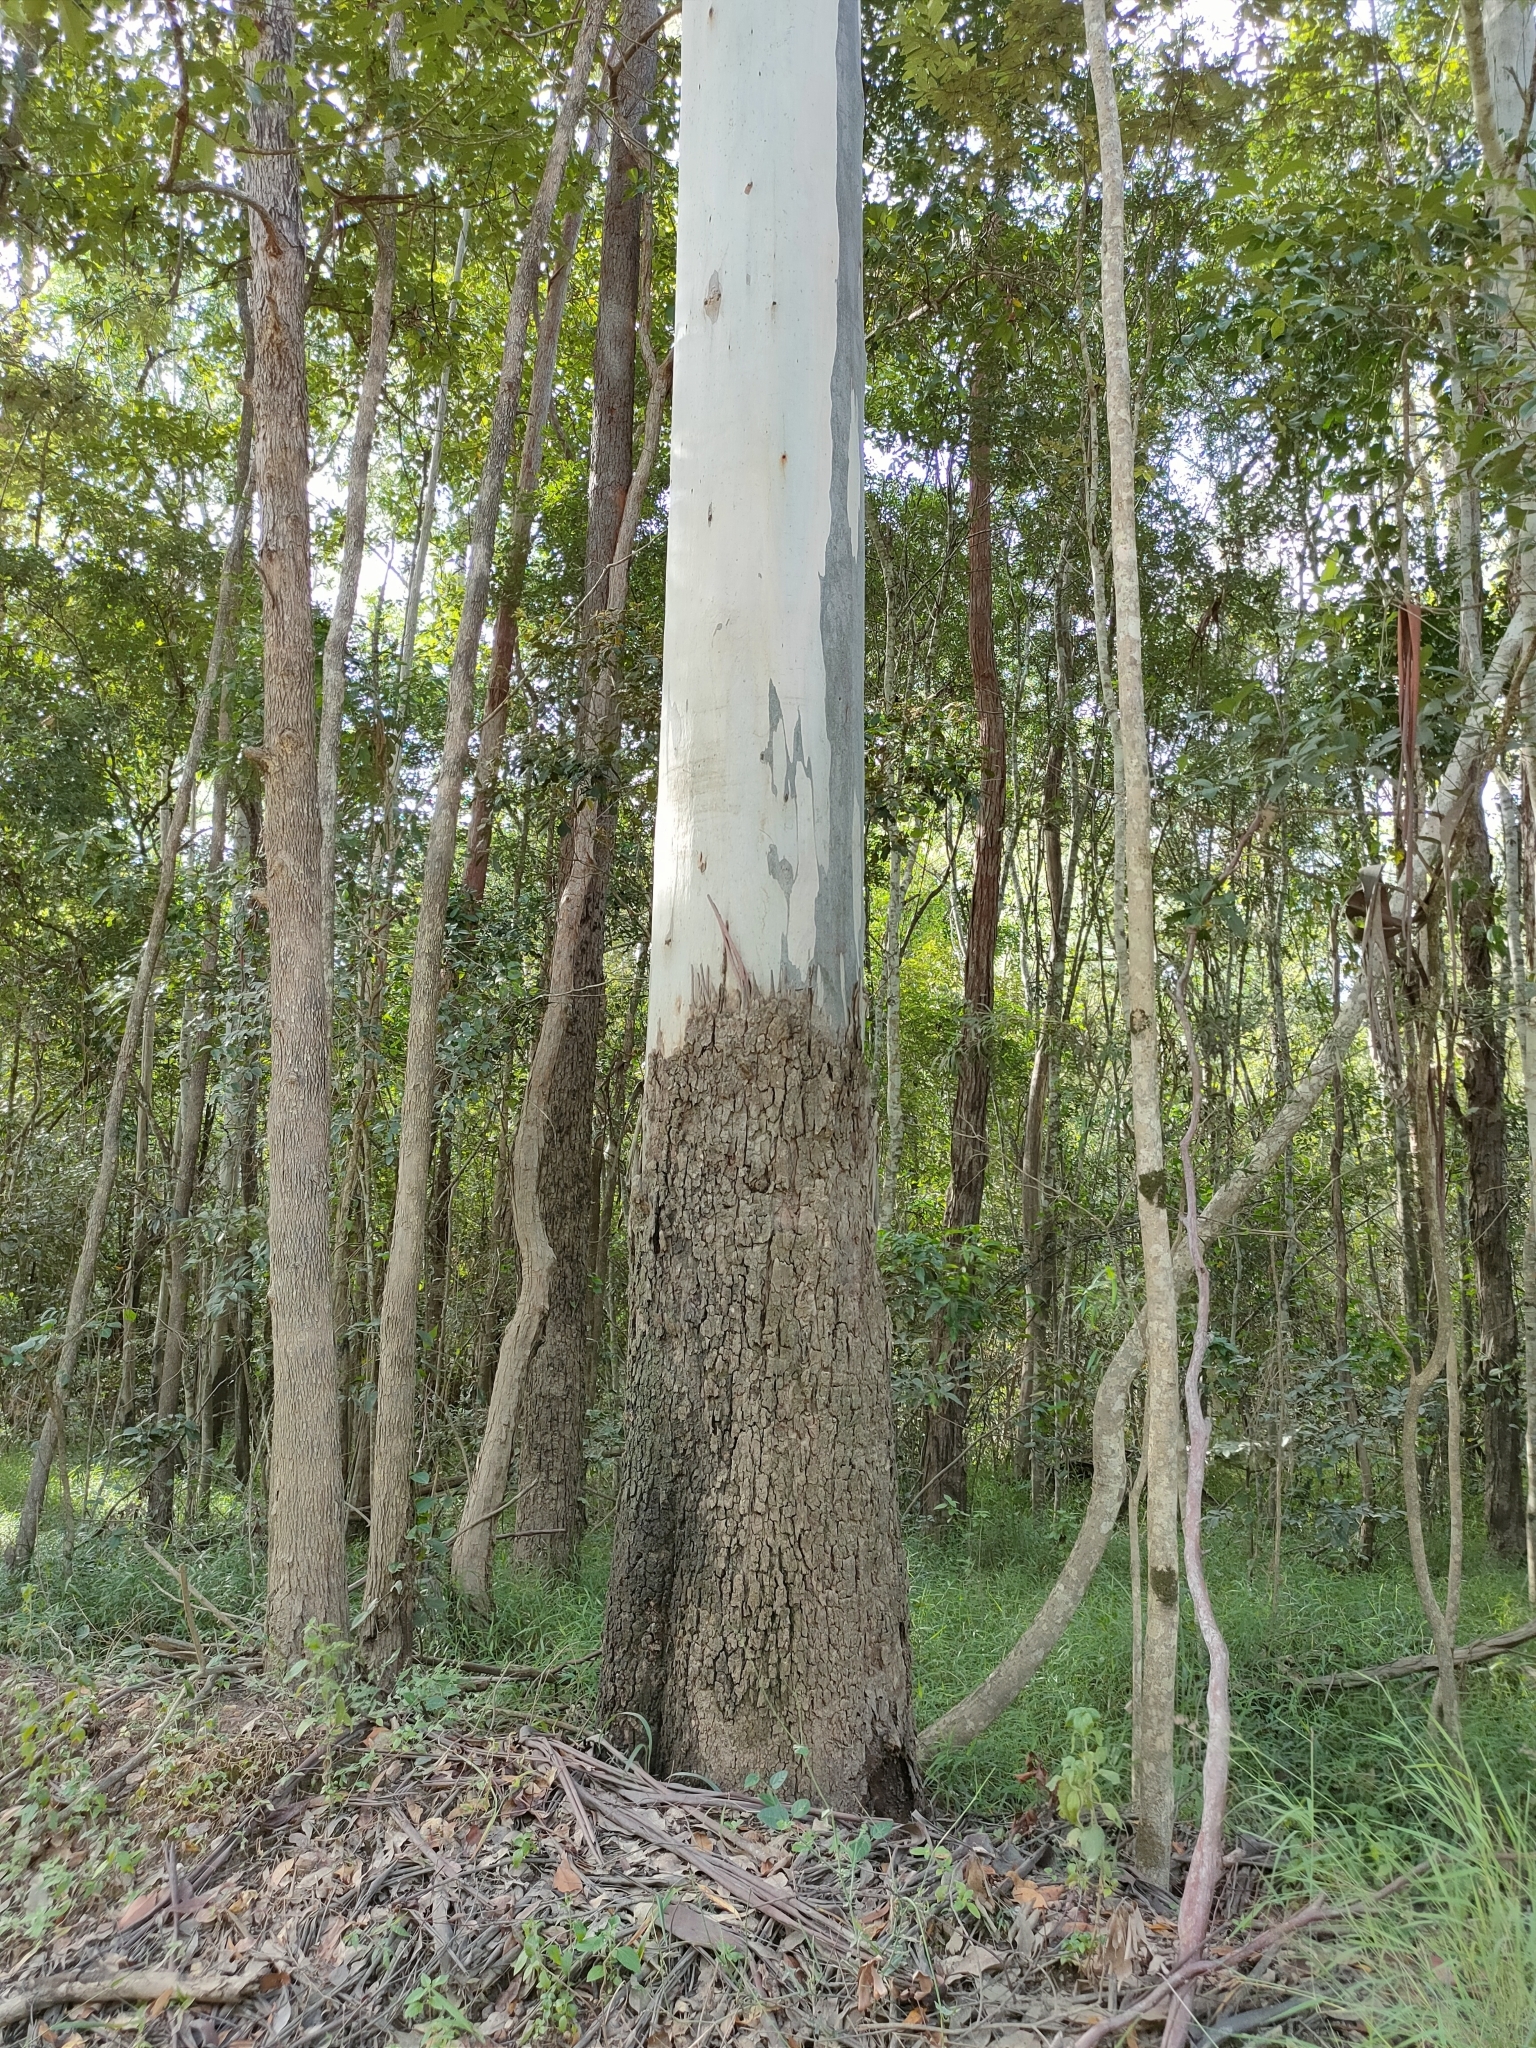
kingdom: Plantae
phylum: Tracheophyta
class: Magnoliopsida
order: Myrtales
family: Myrtaceae
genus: Eucalyptus
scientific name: Eucalyptus grandis
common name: Grand eucalyptus
